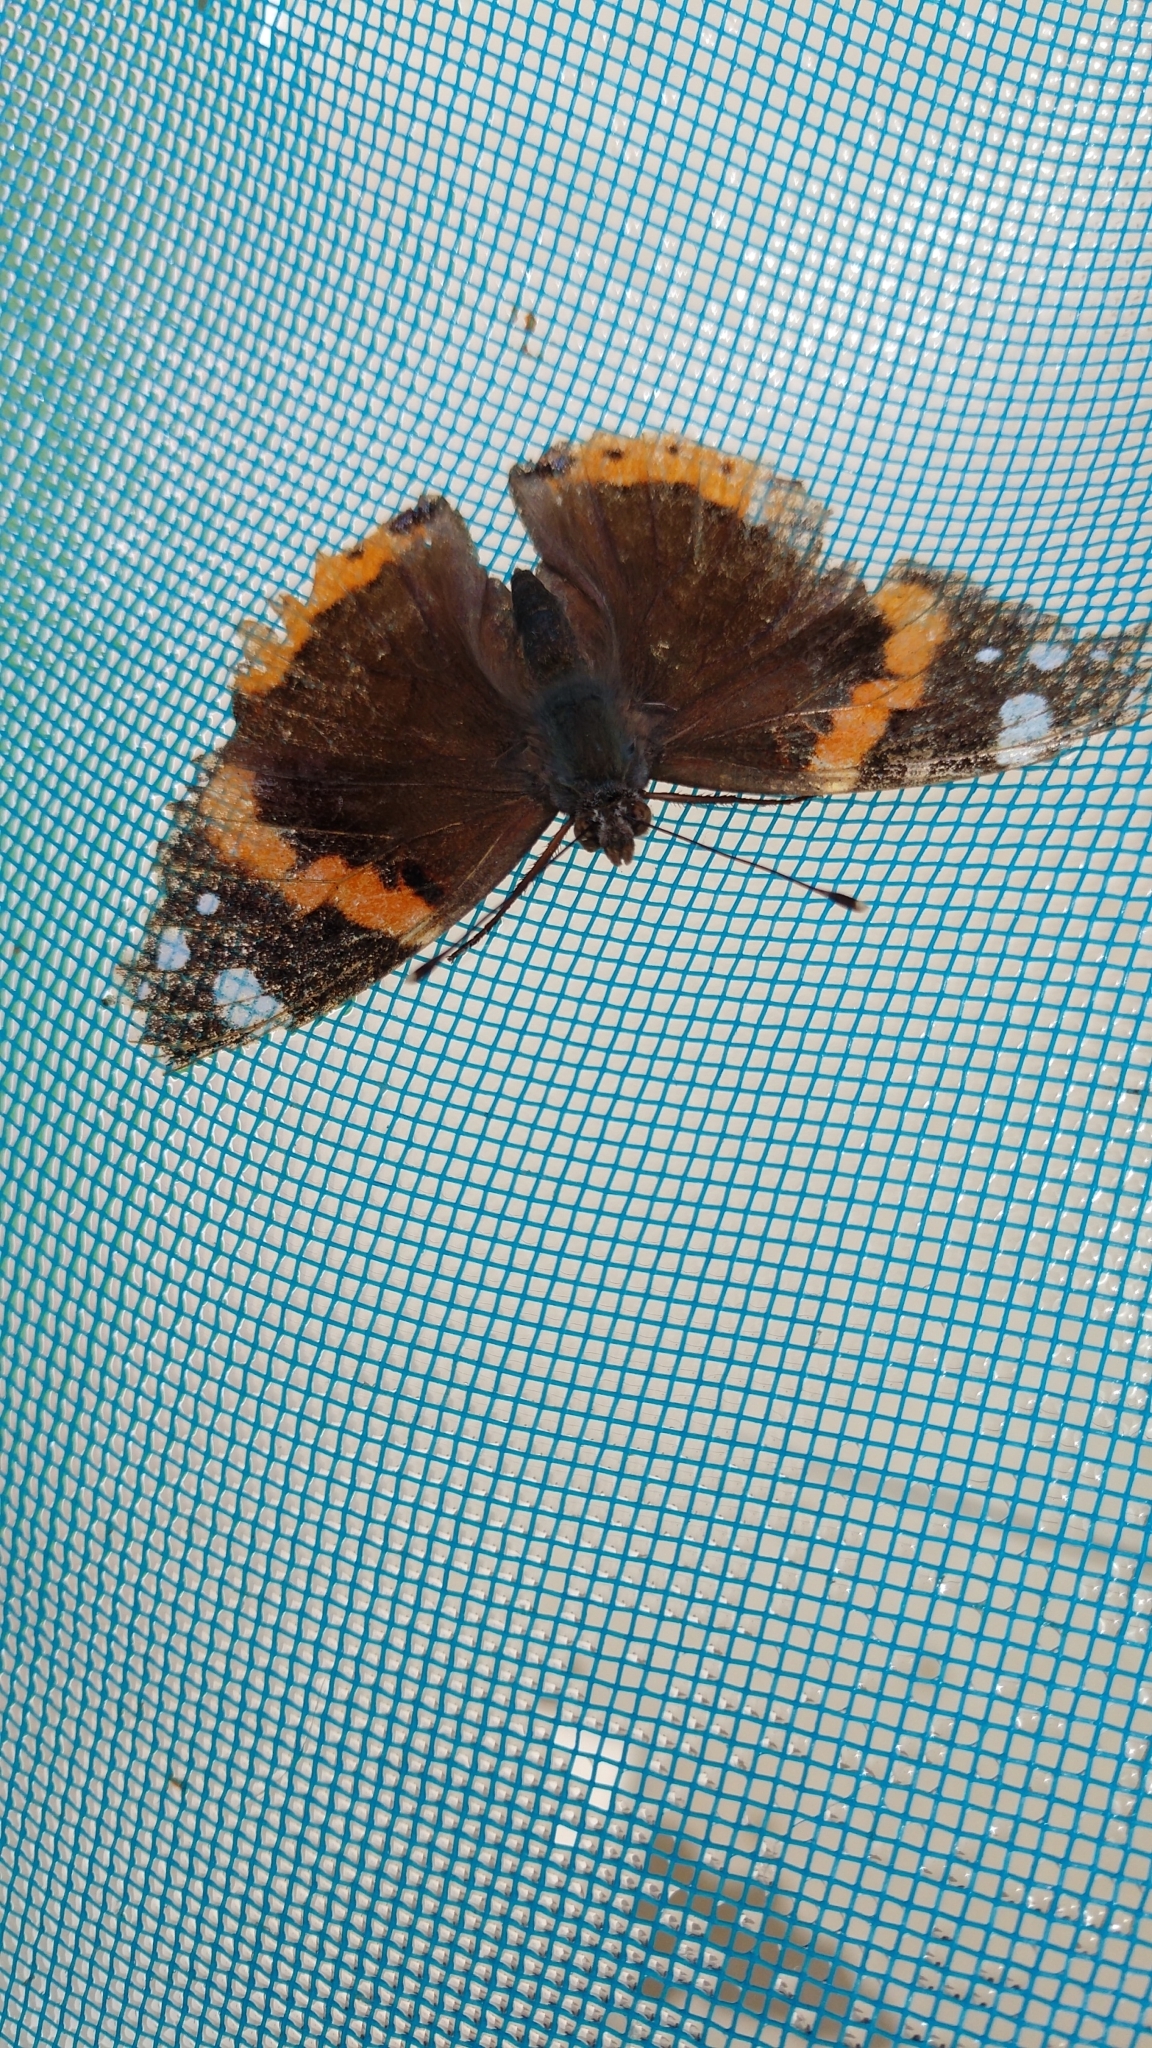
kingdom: Animalia
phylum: Arthropoda
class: Insecta
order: Lepidoptera
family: Nymphalidae
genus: Vanessa
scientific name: Vanessa atalanta
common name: Red admiral
